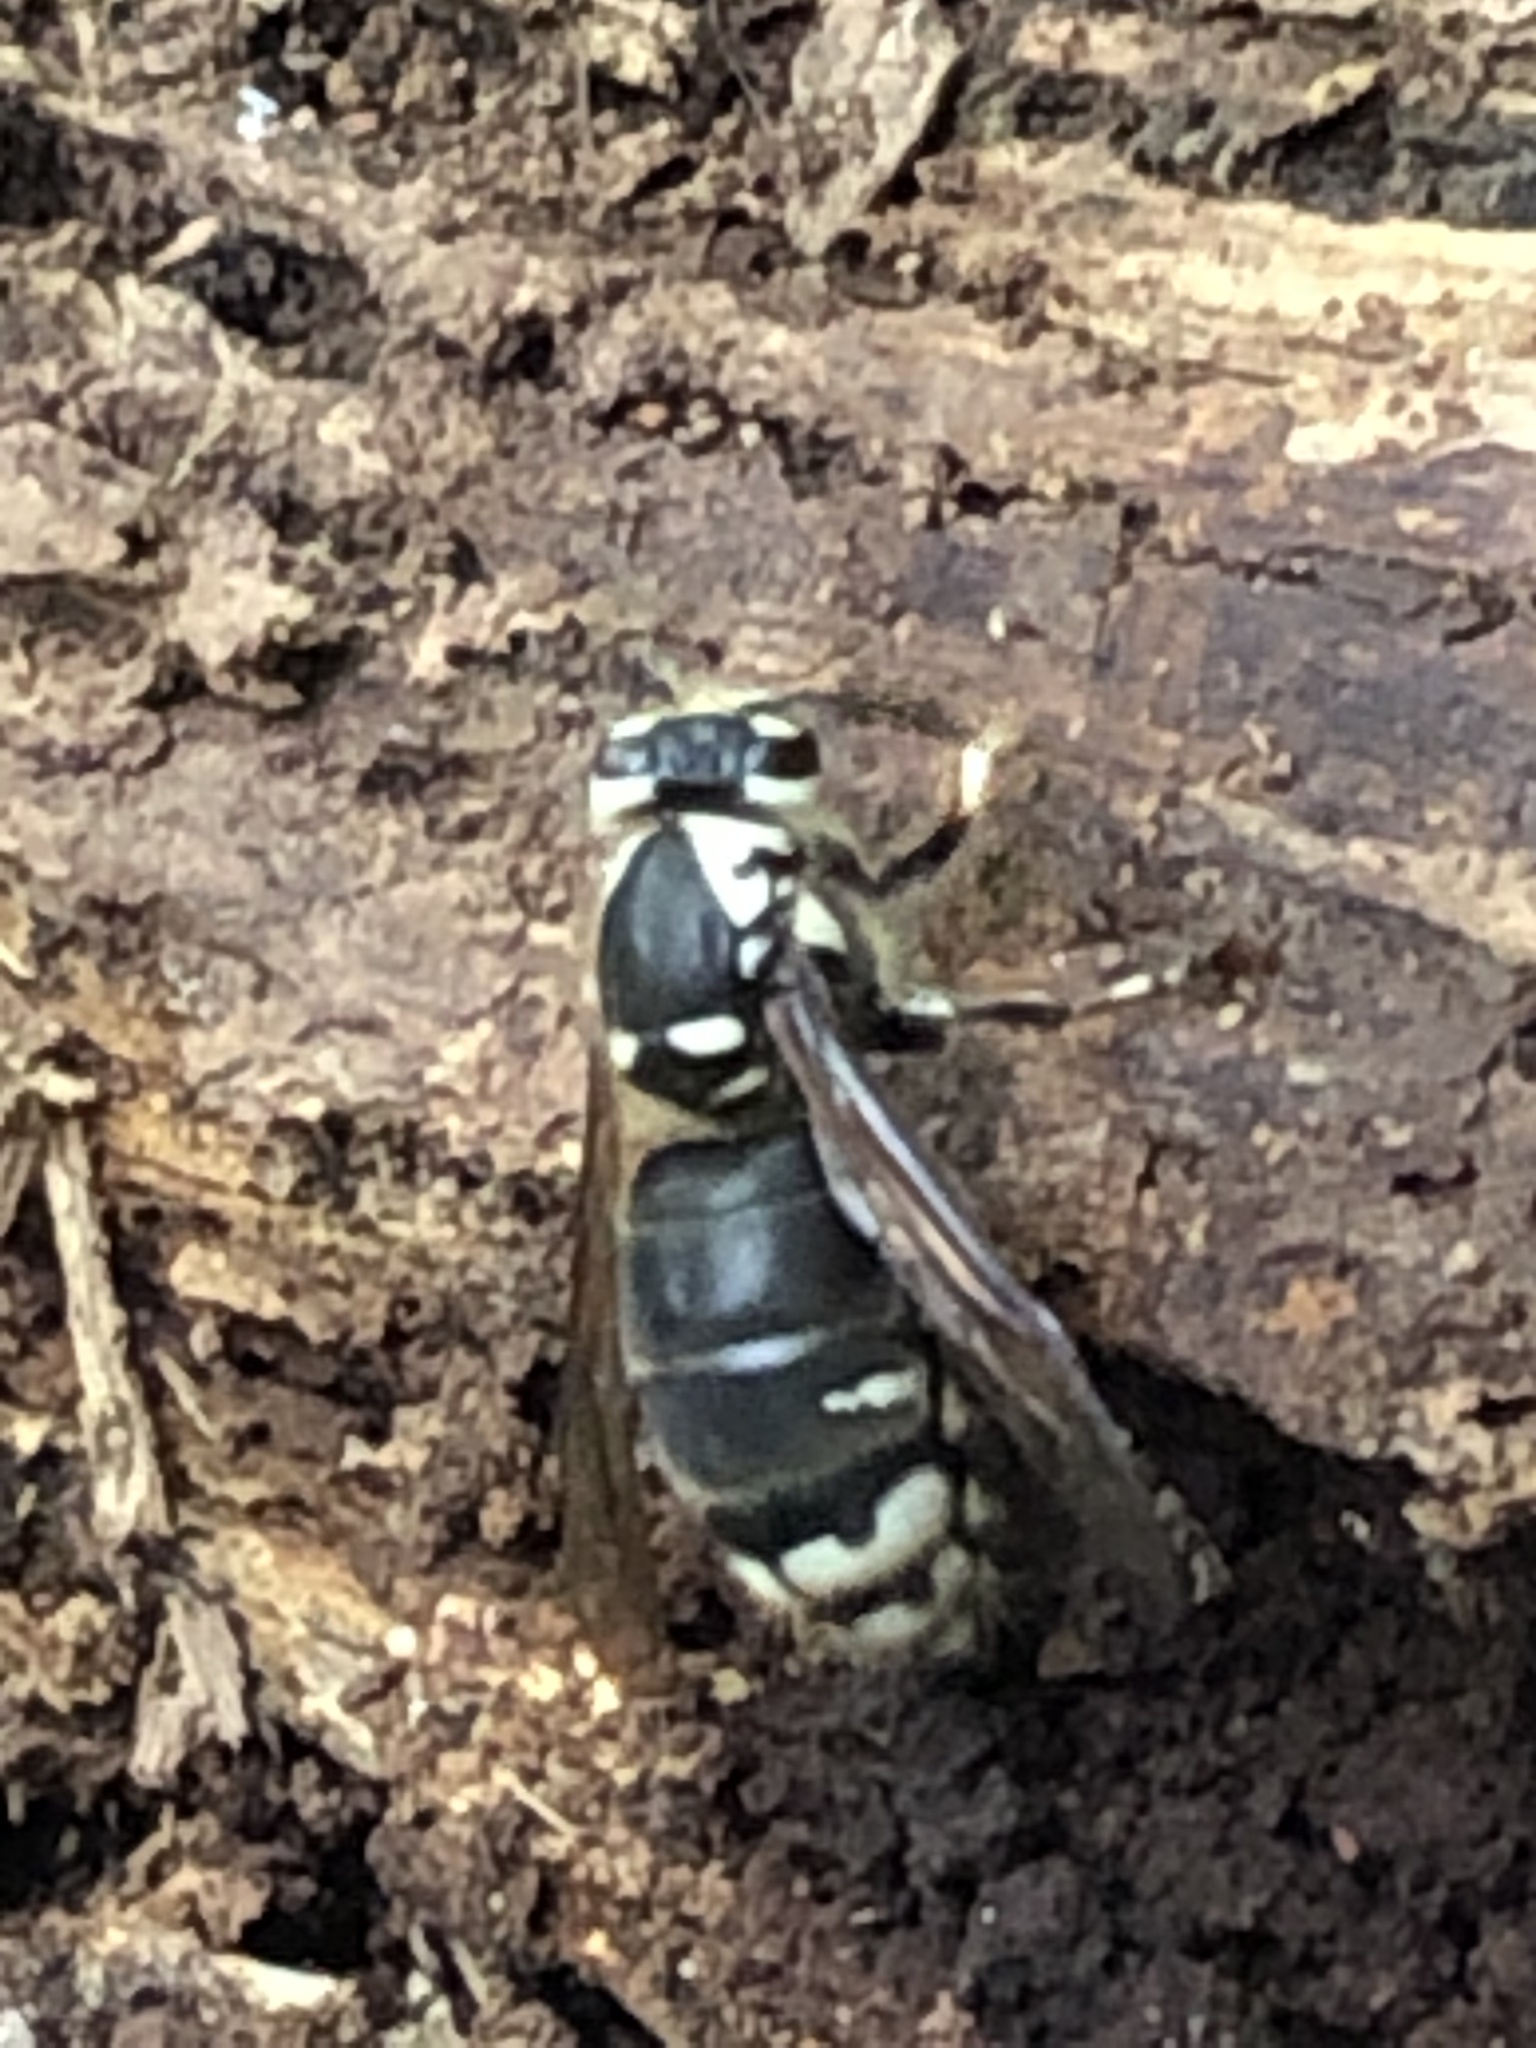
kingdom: Animalia
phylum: Arthropoda
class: Insecta
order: Hymenoptera
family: Vespidae
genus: Dolichovespula
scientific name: Dolichovespula maculata
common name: Bald-faced hornet
